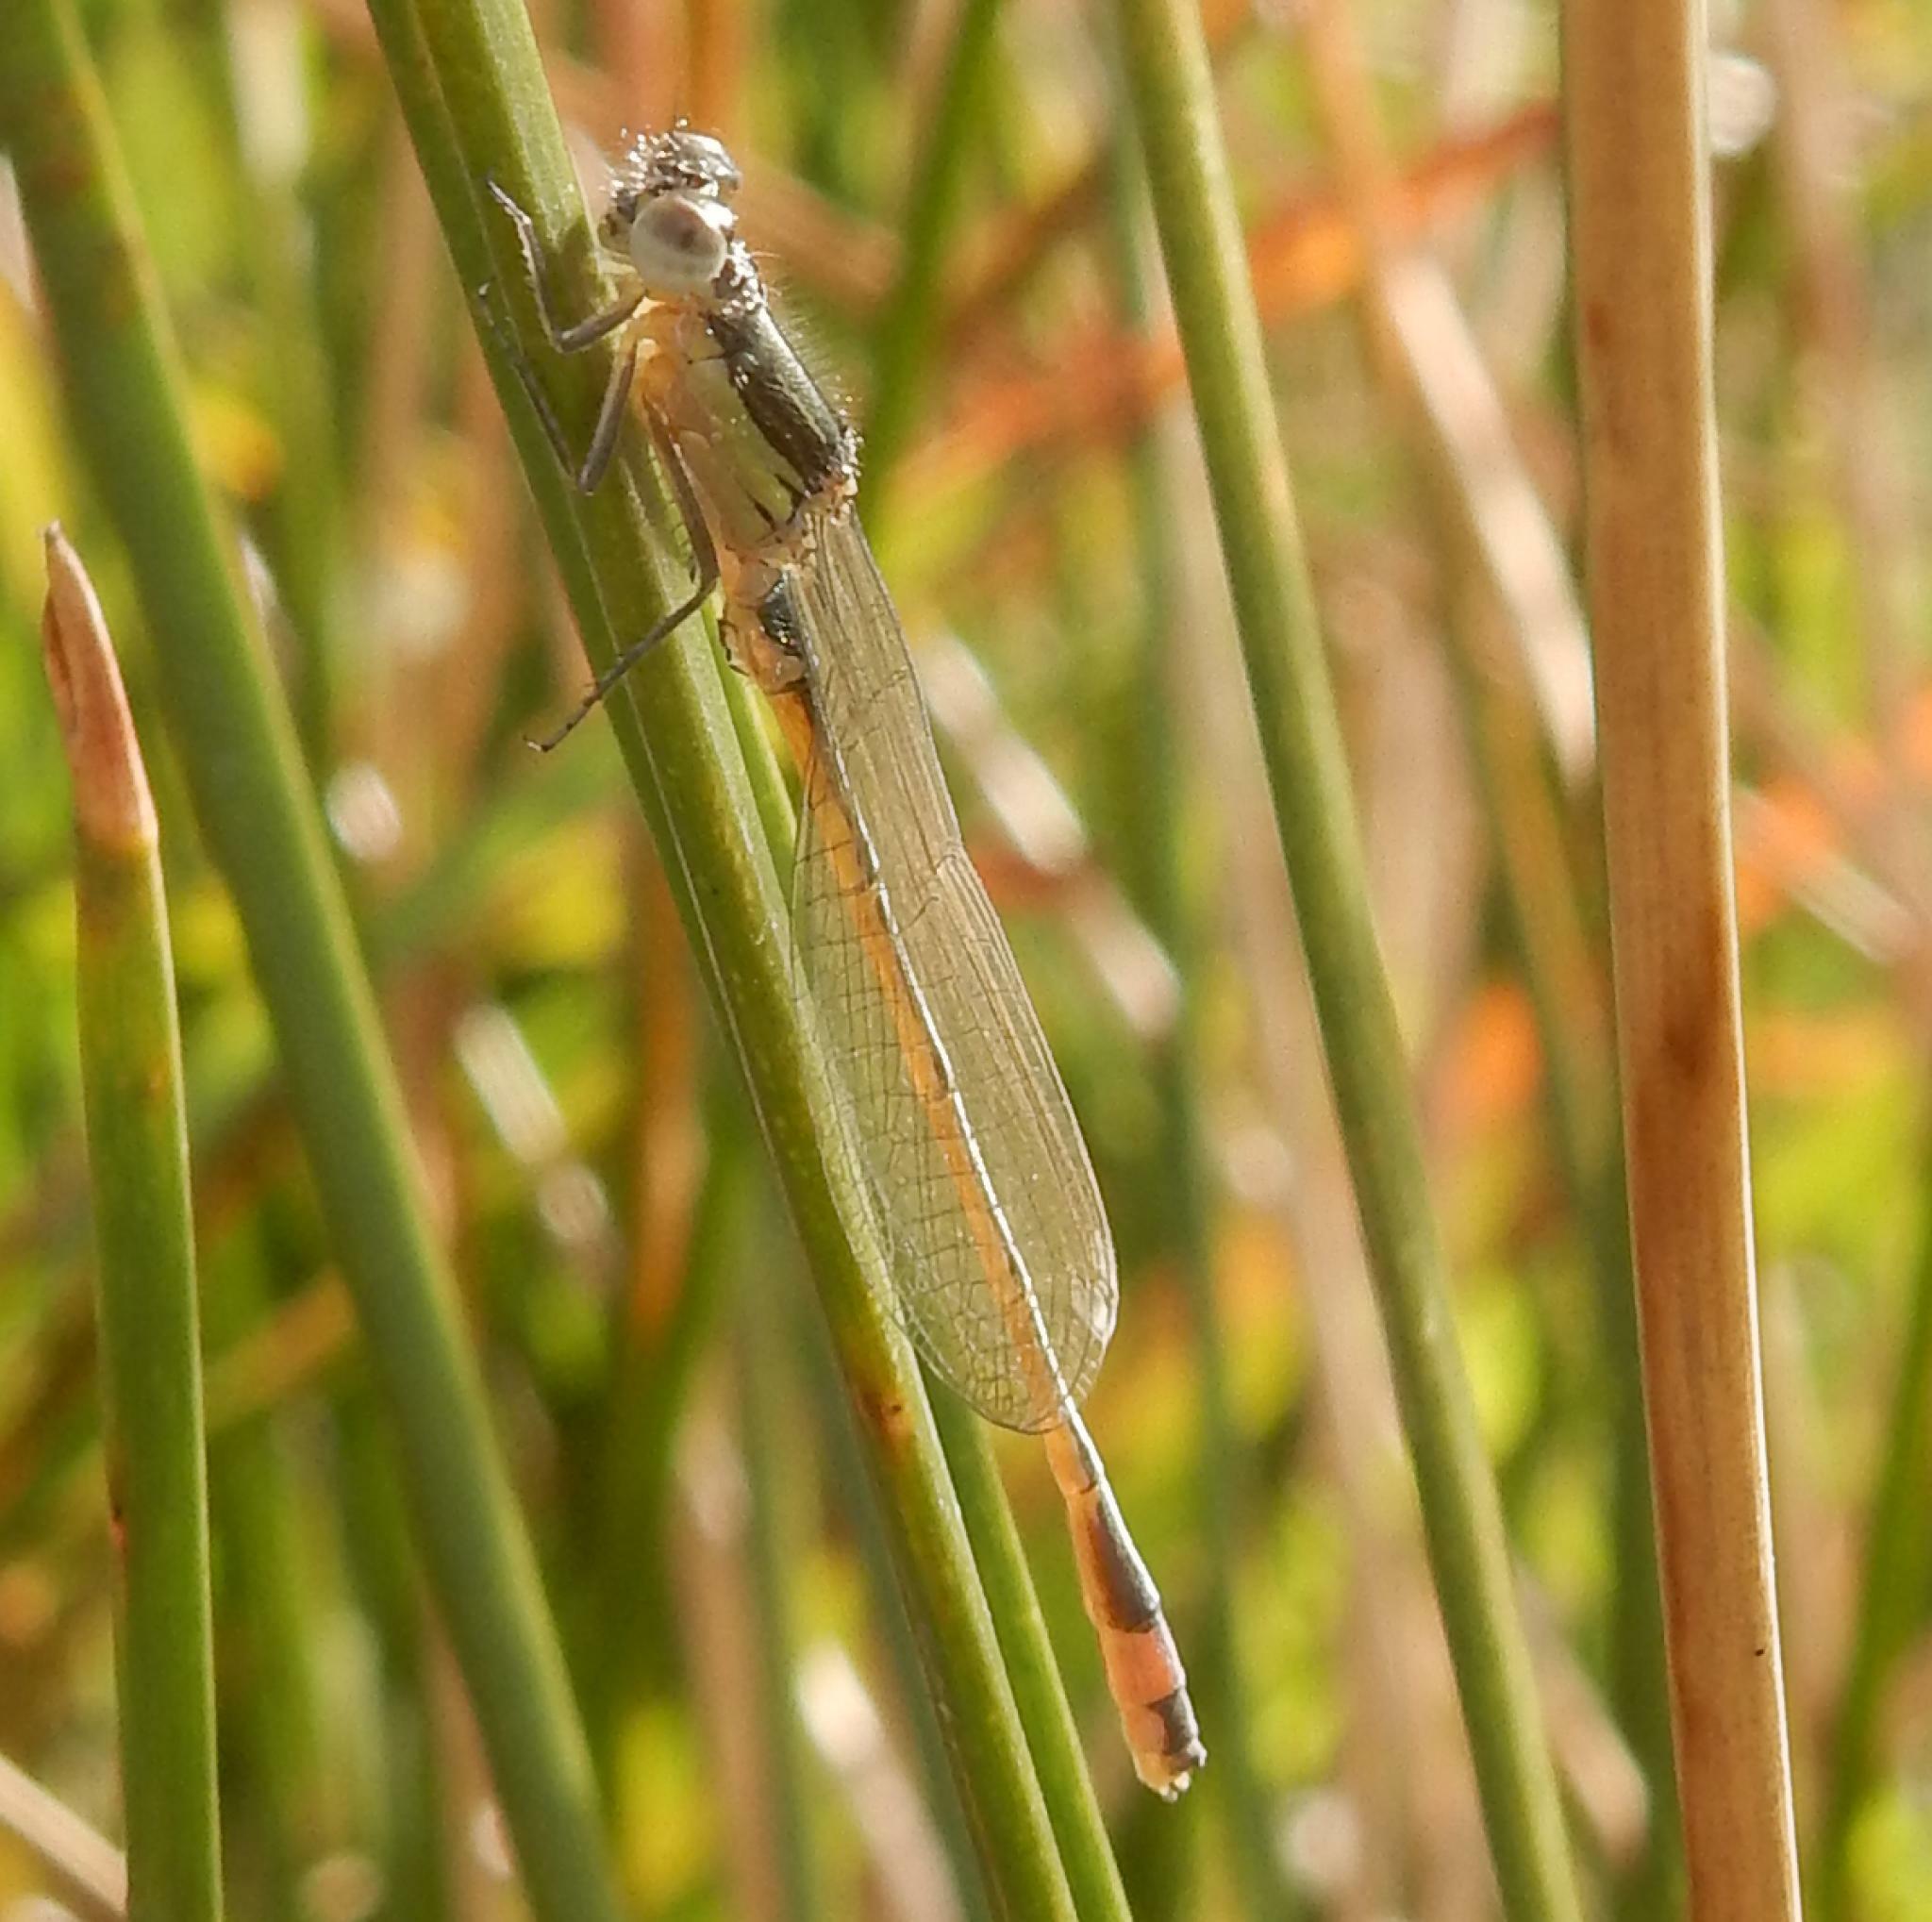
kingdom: Animalia
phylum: Arthropoda
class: Insecta
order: Odonata
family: Coenagrionidae
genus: Ischnura
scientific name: Ischnura senegalensis
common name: Tropical bluetail
